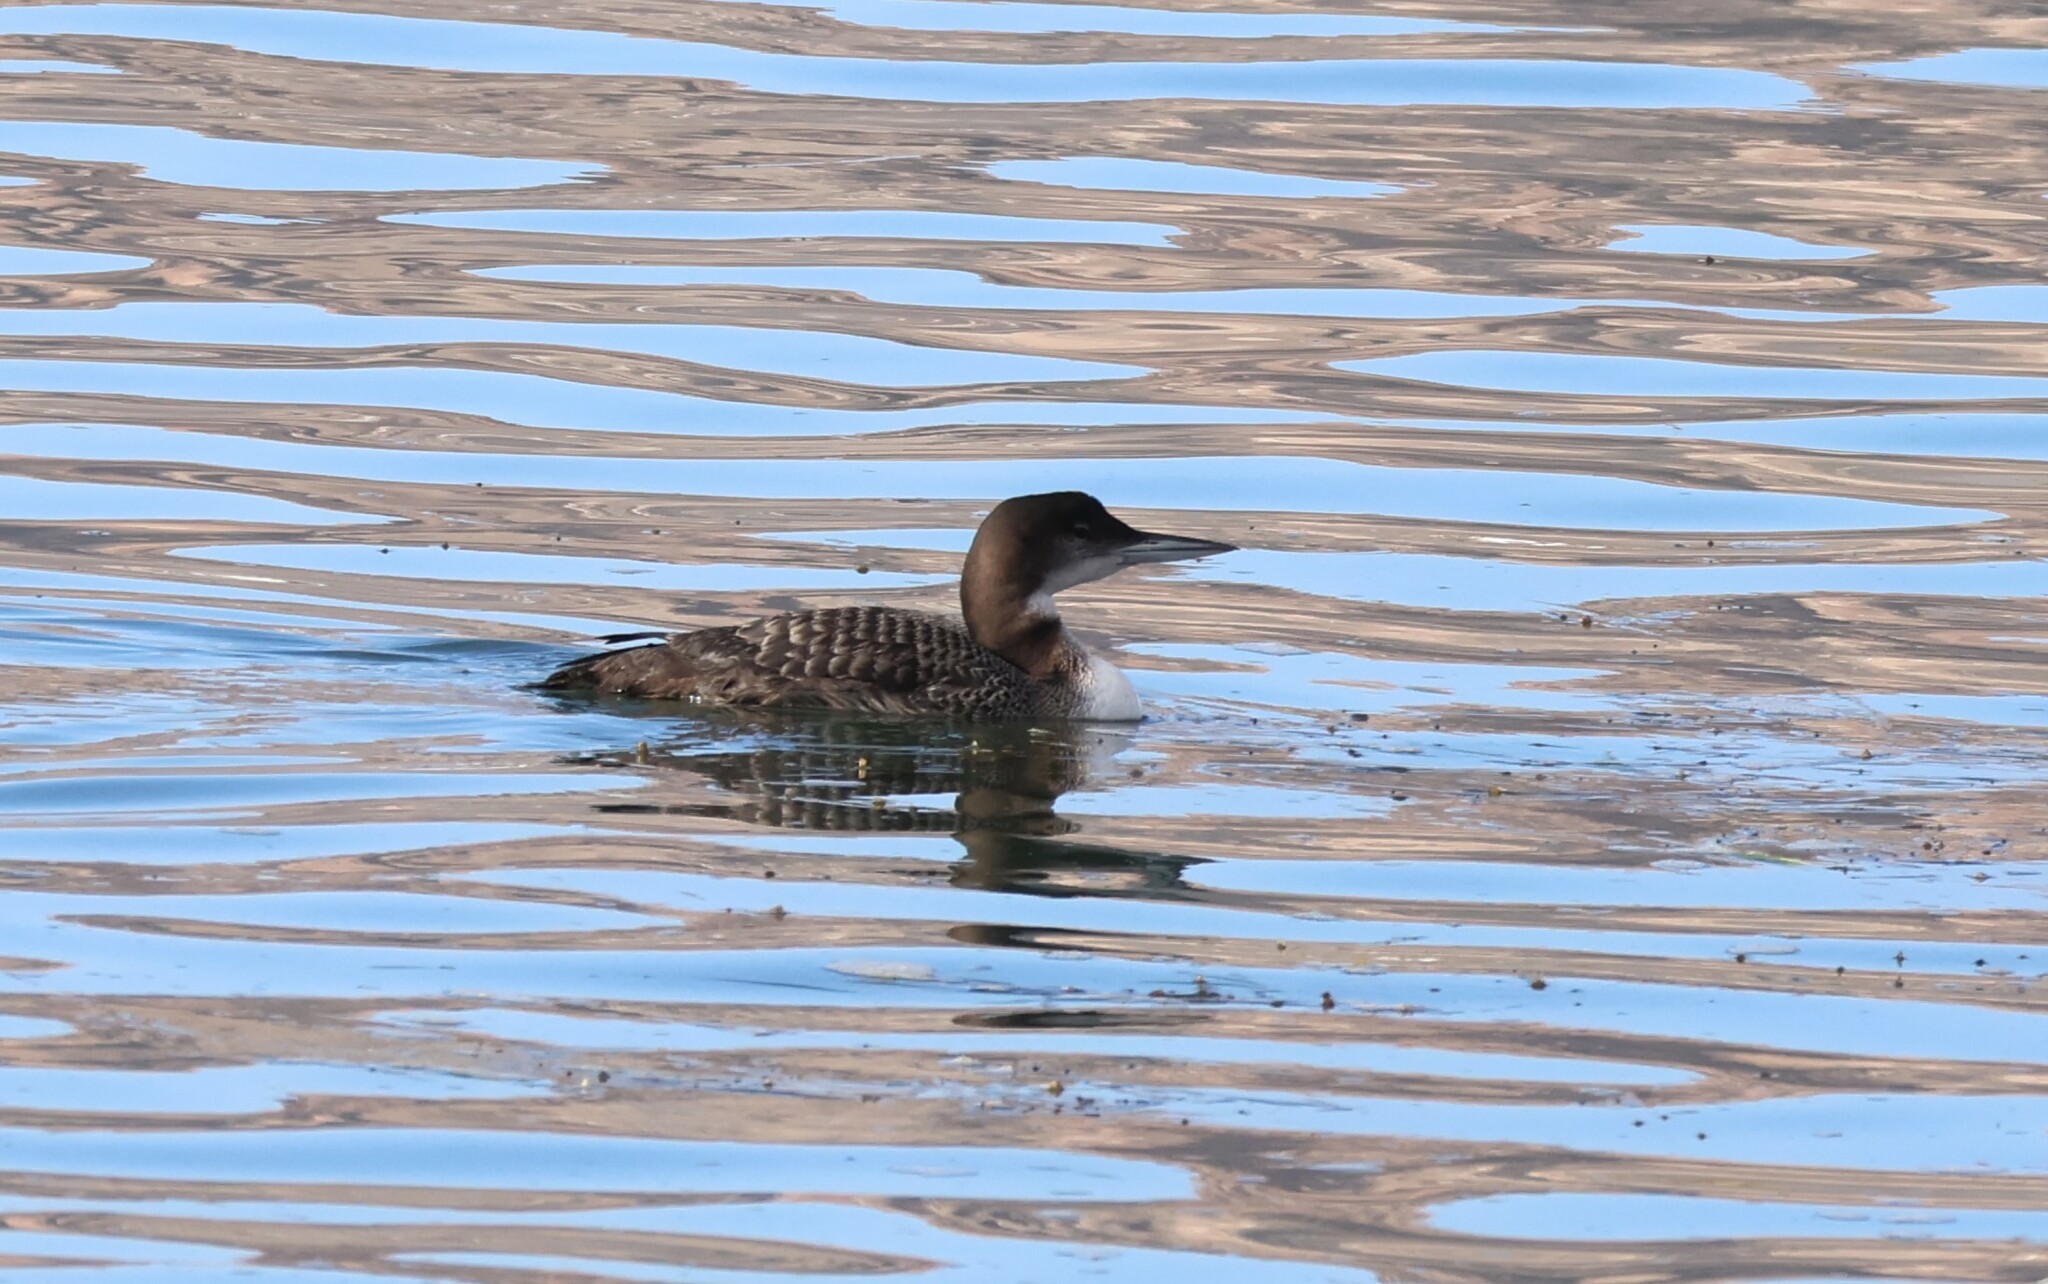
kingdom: Animalia
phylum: Chordata
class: Aves
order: Gaviiformes
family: Gaviidae
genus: Gavia
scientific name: Gavia immer
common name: Common loon
